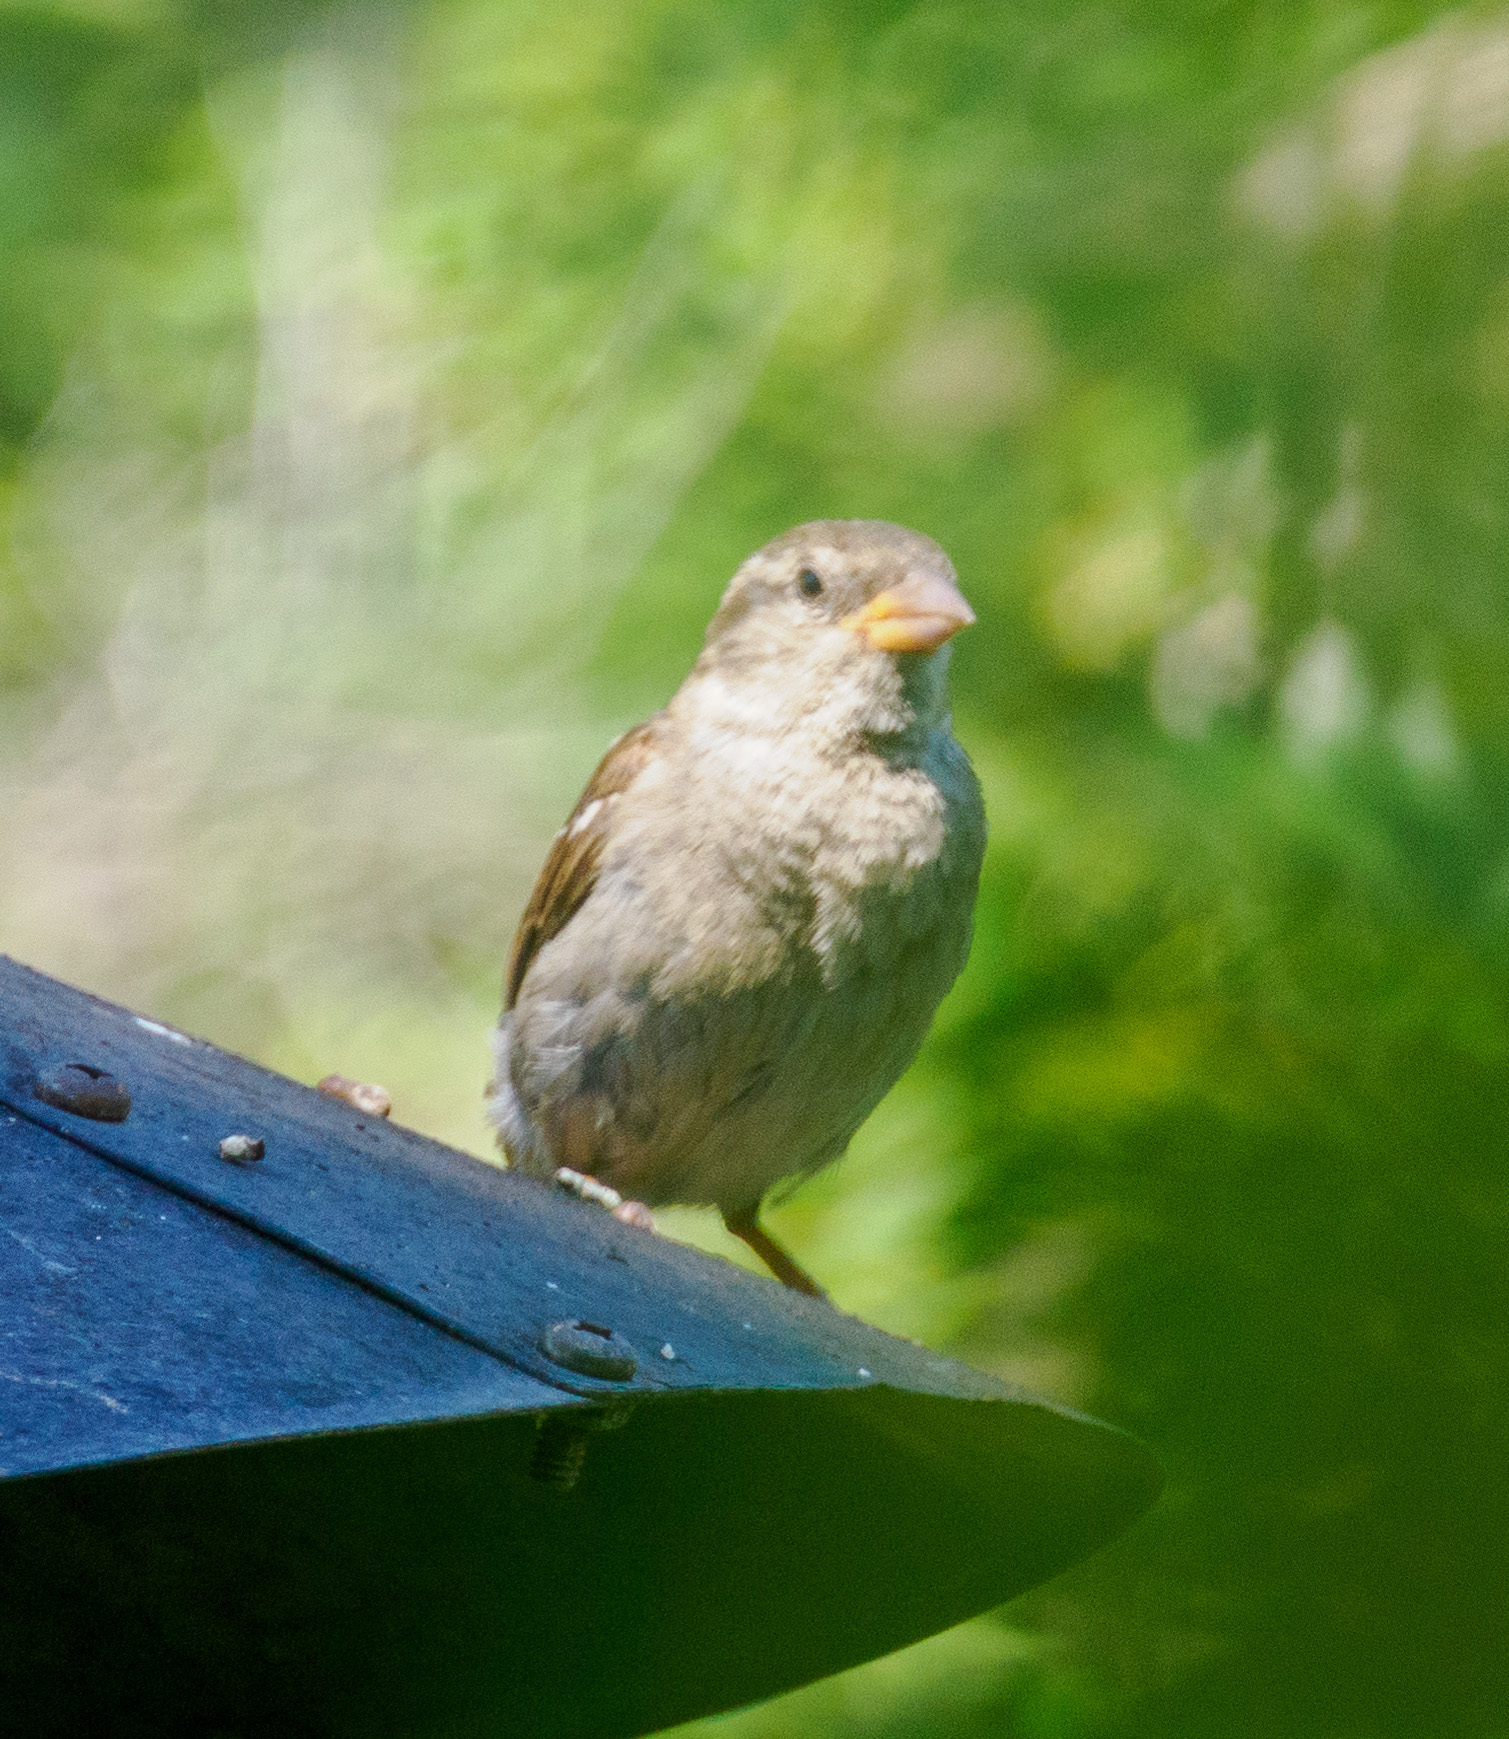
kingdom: Animalia
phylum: Chordata
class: Aves
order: Passeriformes
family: Passeridae
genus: Passer
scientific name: Passer domesticus
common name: House sparrow
